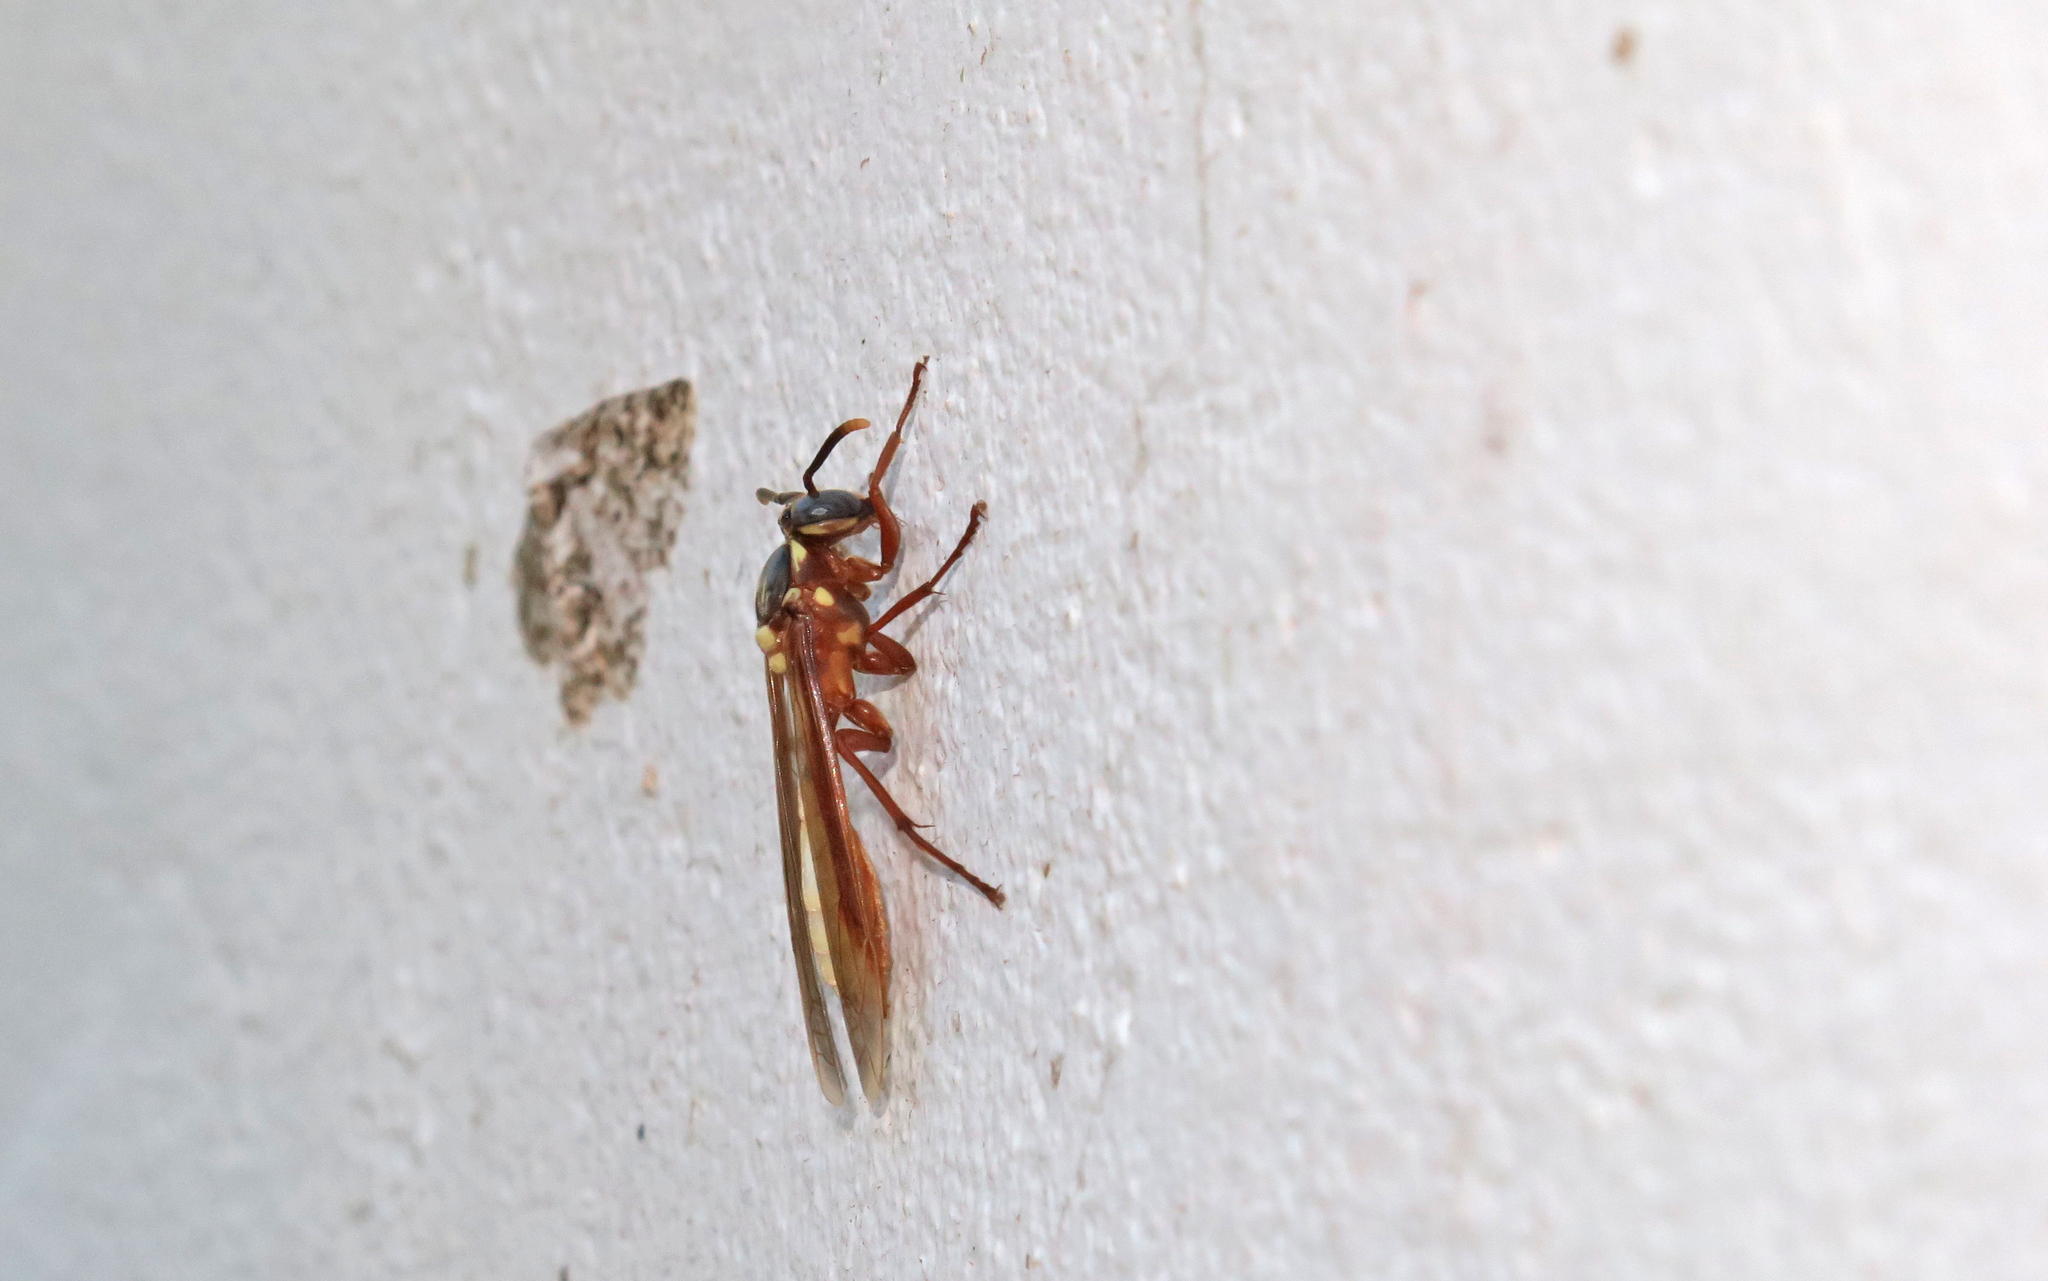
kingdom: Animalia
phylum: Arthropoda
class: Insecta
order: Hymenoptera
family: Vespidae
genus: Apoica
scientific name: Apoica pallens
